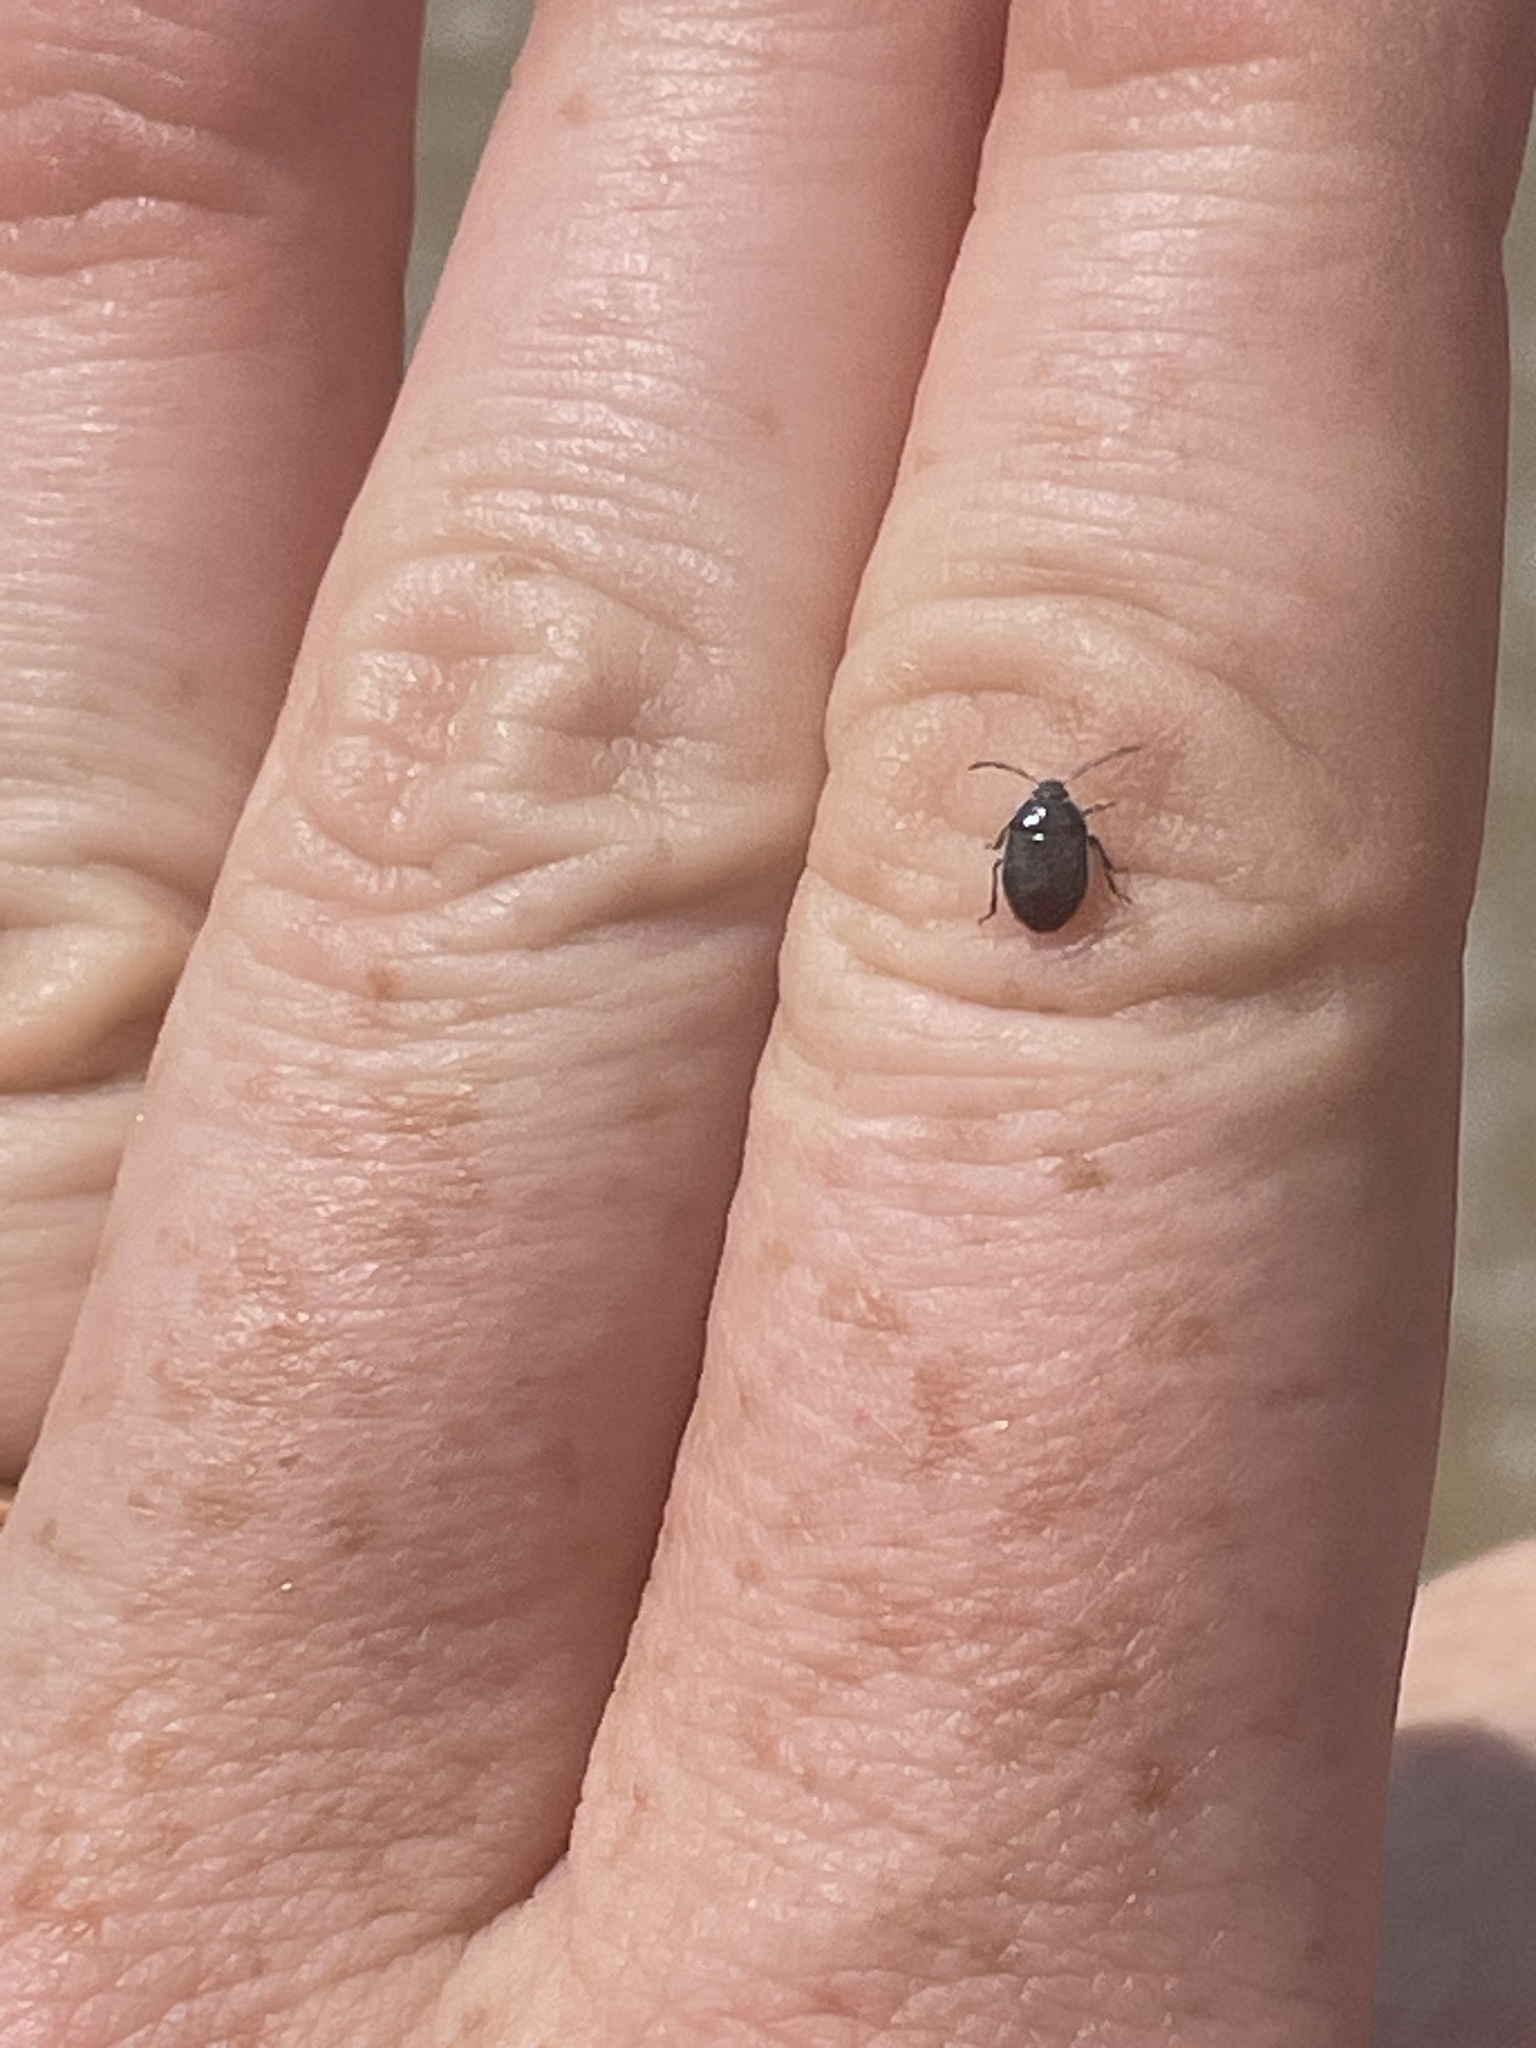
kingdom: Animalia
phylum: Arthropoda
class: Insecta
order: Hemiptera
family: Cydnidae
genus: Sehirus
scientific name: Sehirus cinctus
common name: White-margined burrower bug
